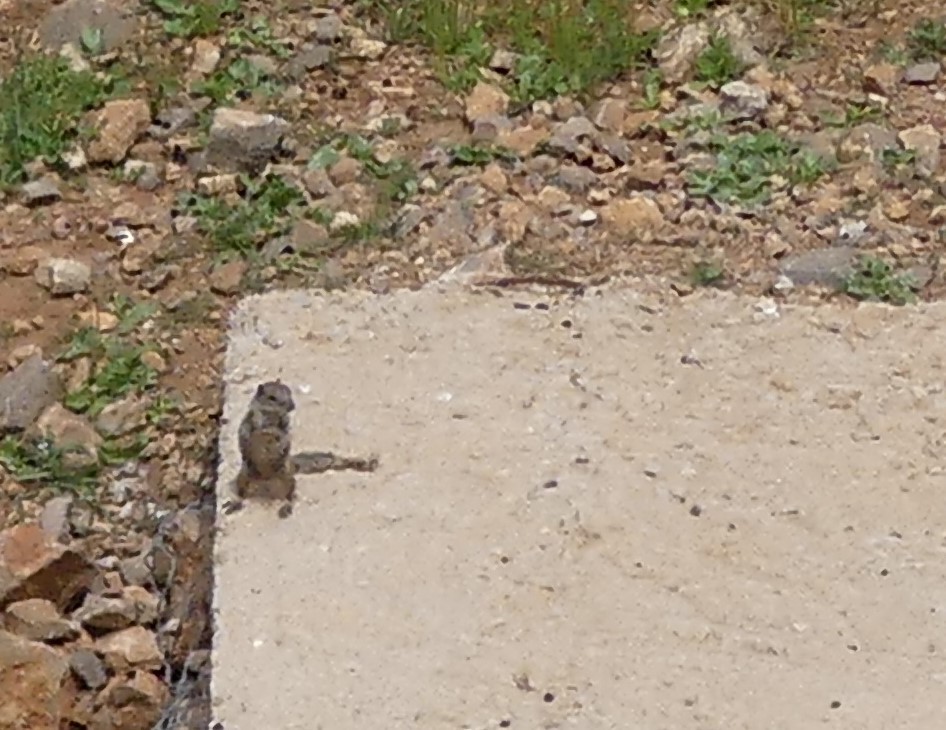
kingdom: Animalia
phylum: Chordata
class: Mammalia
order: Rodentia
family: Sciuridae
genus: Atlantoxerus
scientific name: Atlantoxerus getulus
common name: Barbary ground squirrel
